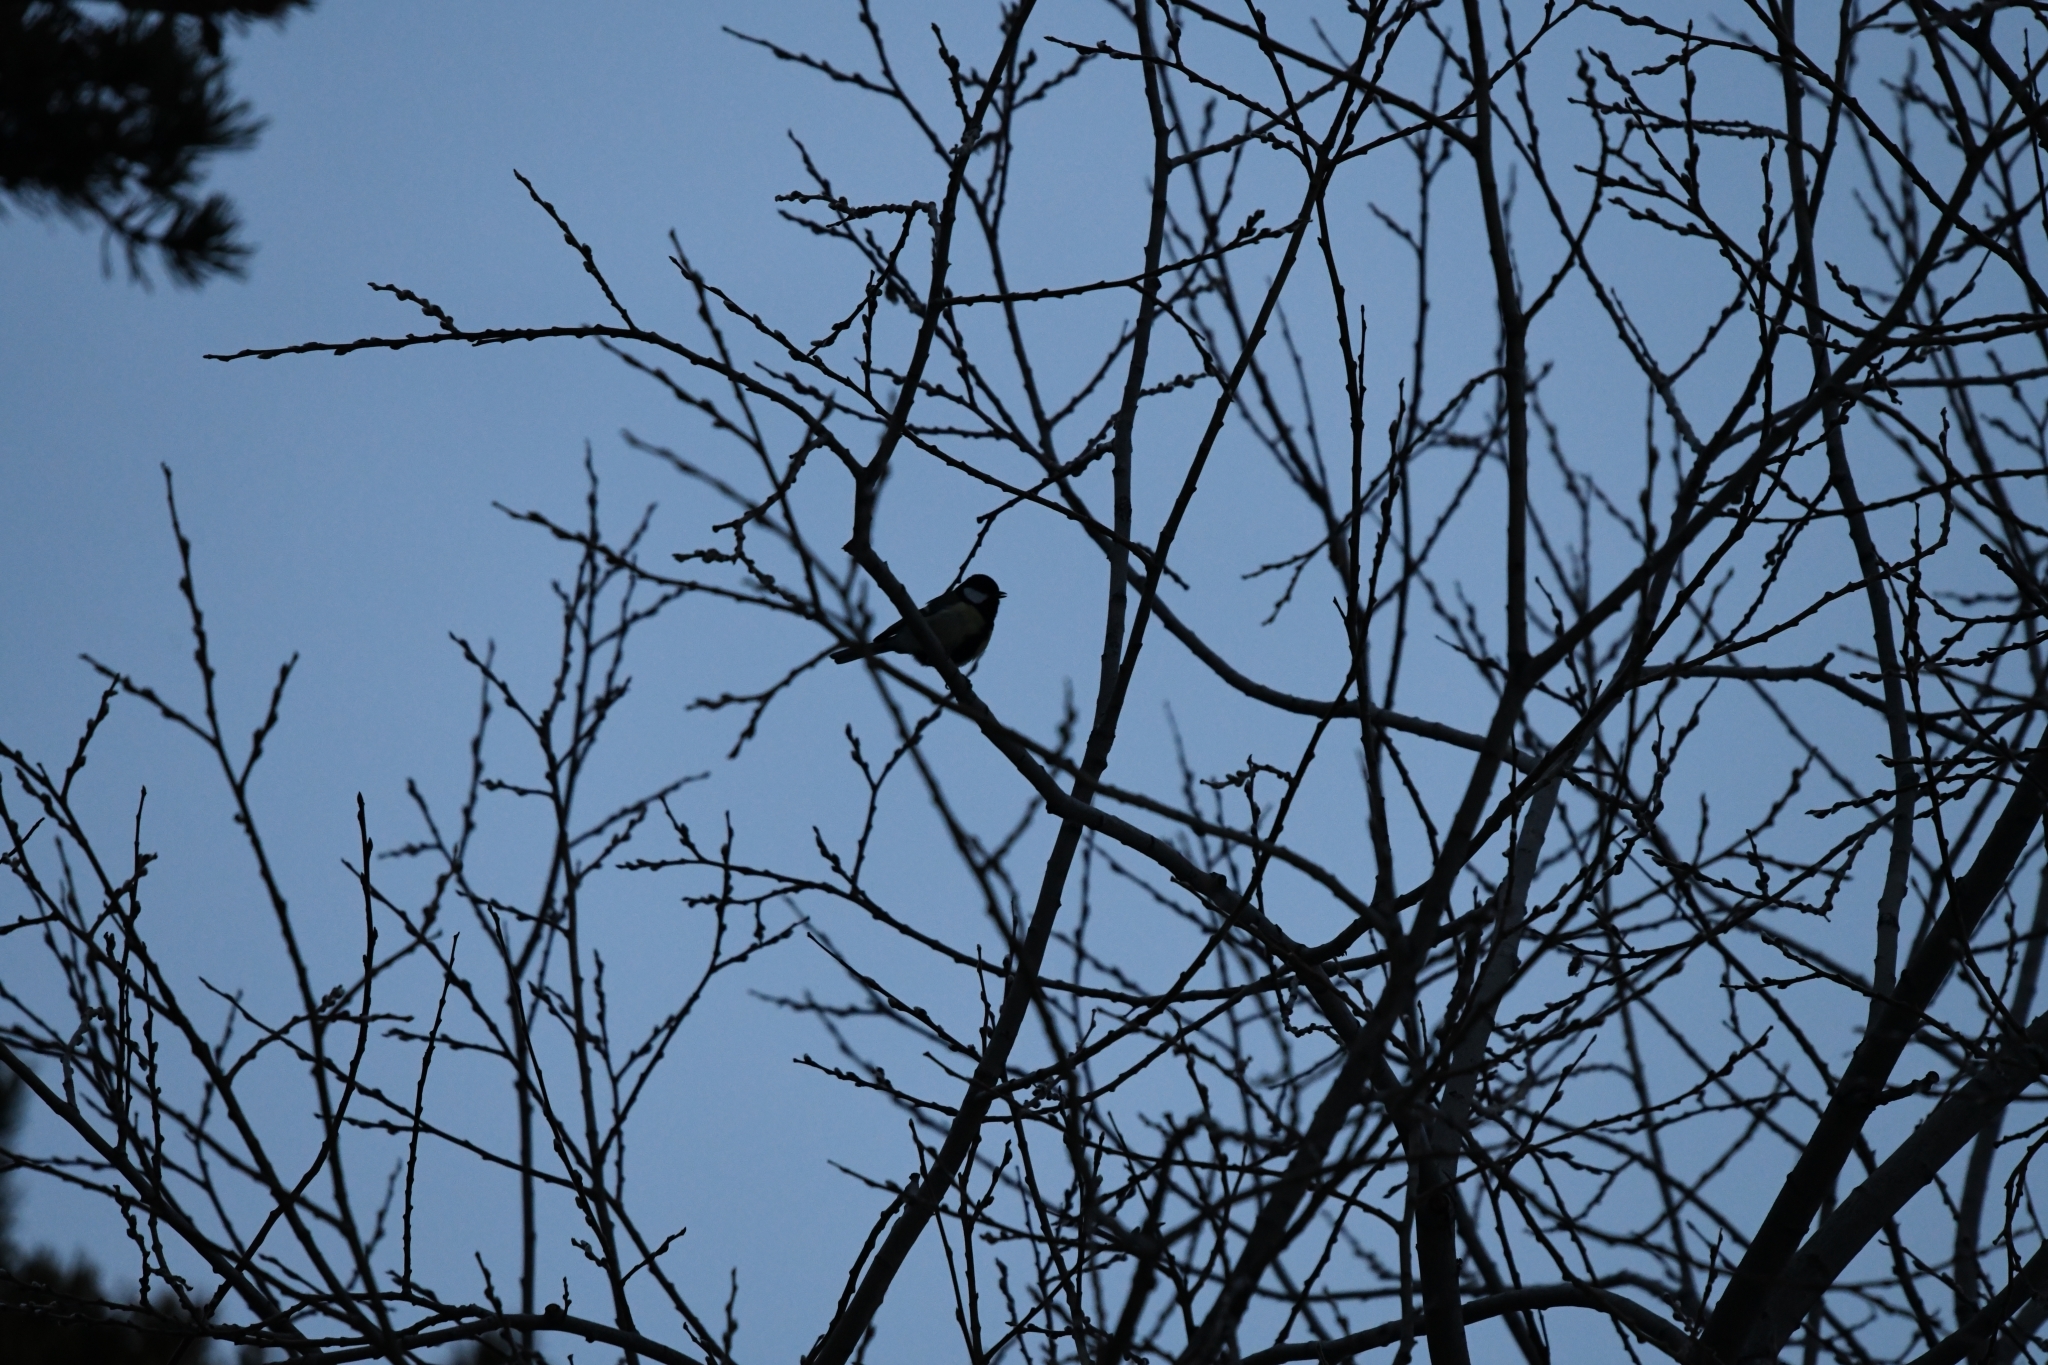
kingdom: Animalia
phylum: Chordata
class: Aves
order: Passeriformes
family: Paridae
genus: Parus
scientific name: Parus major
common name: Great tit
